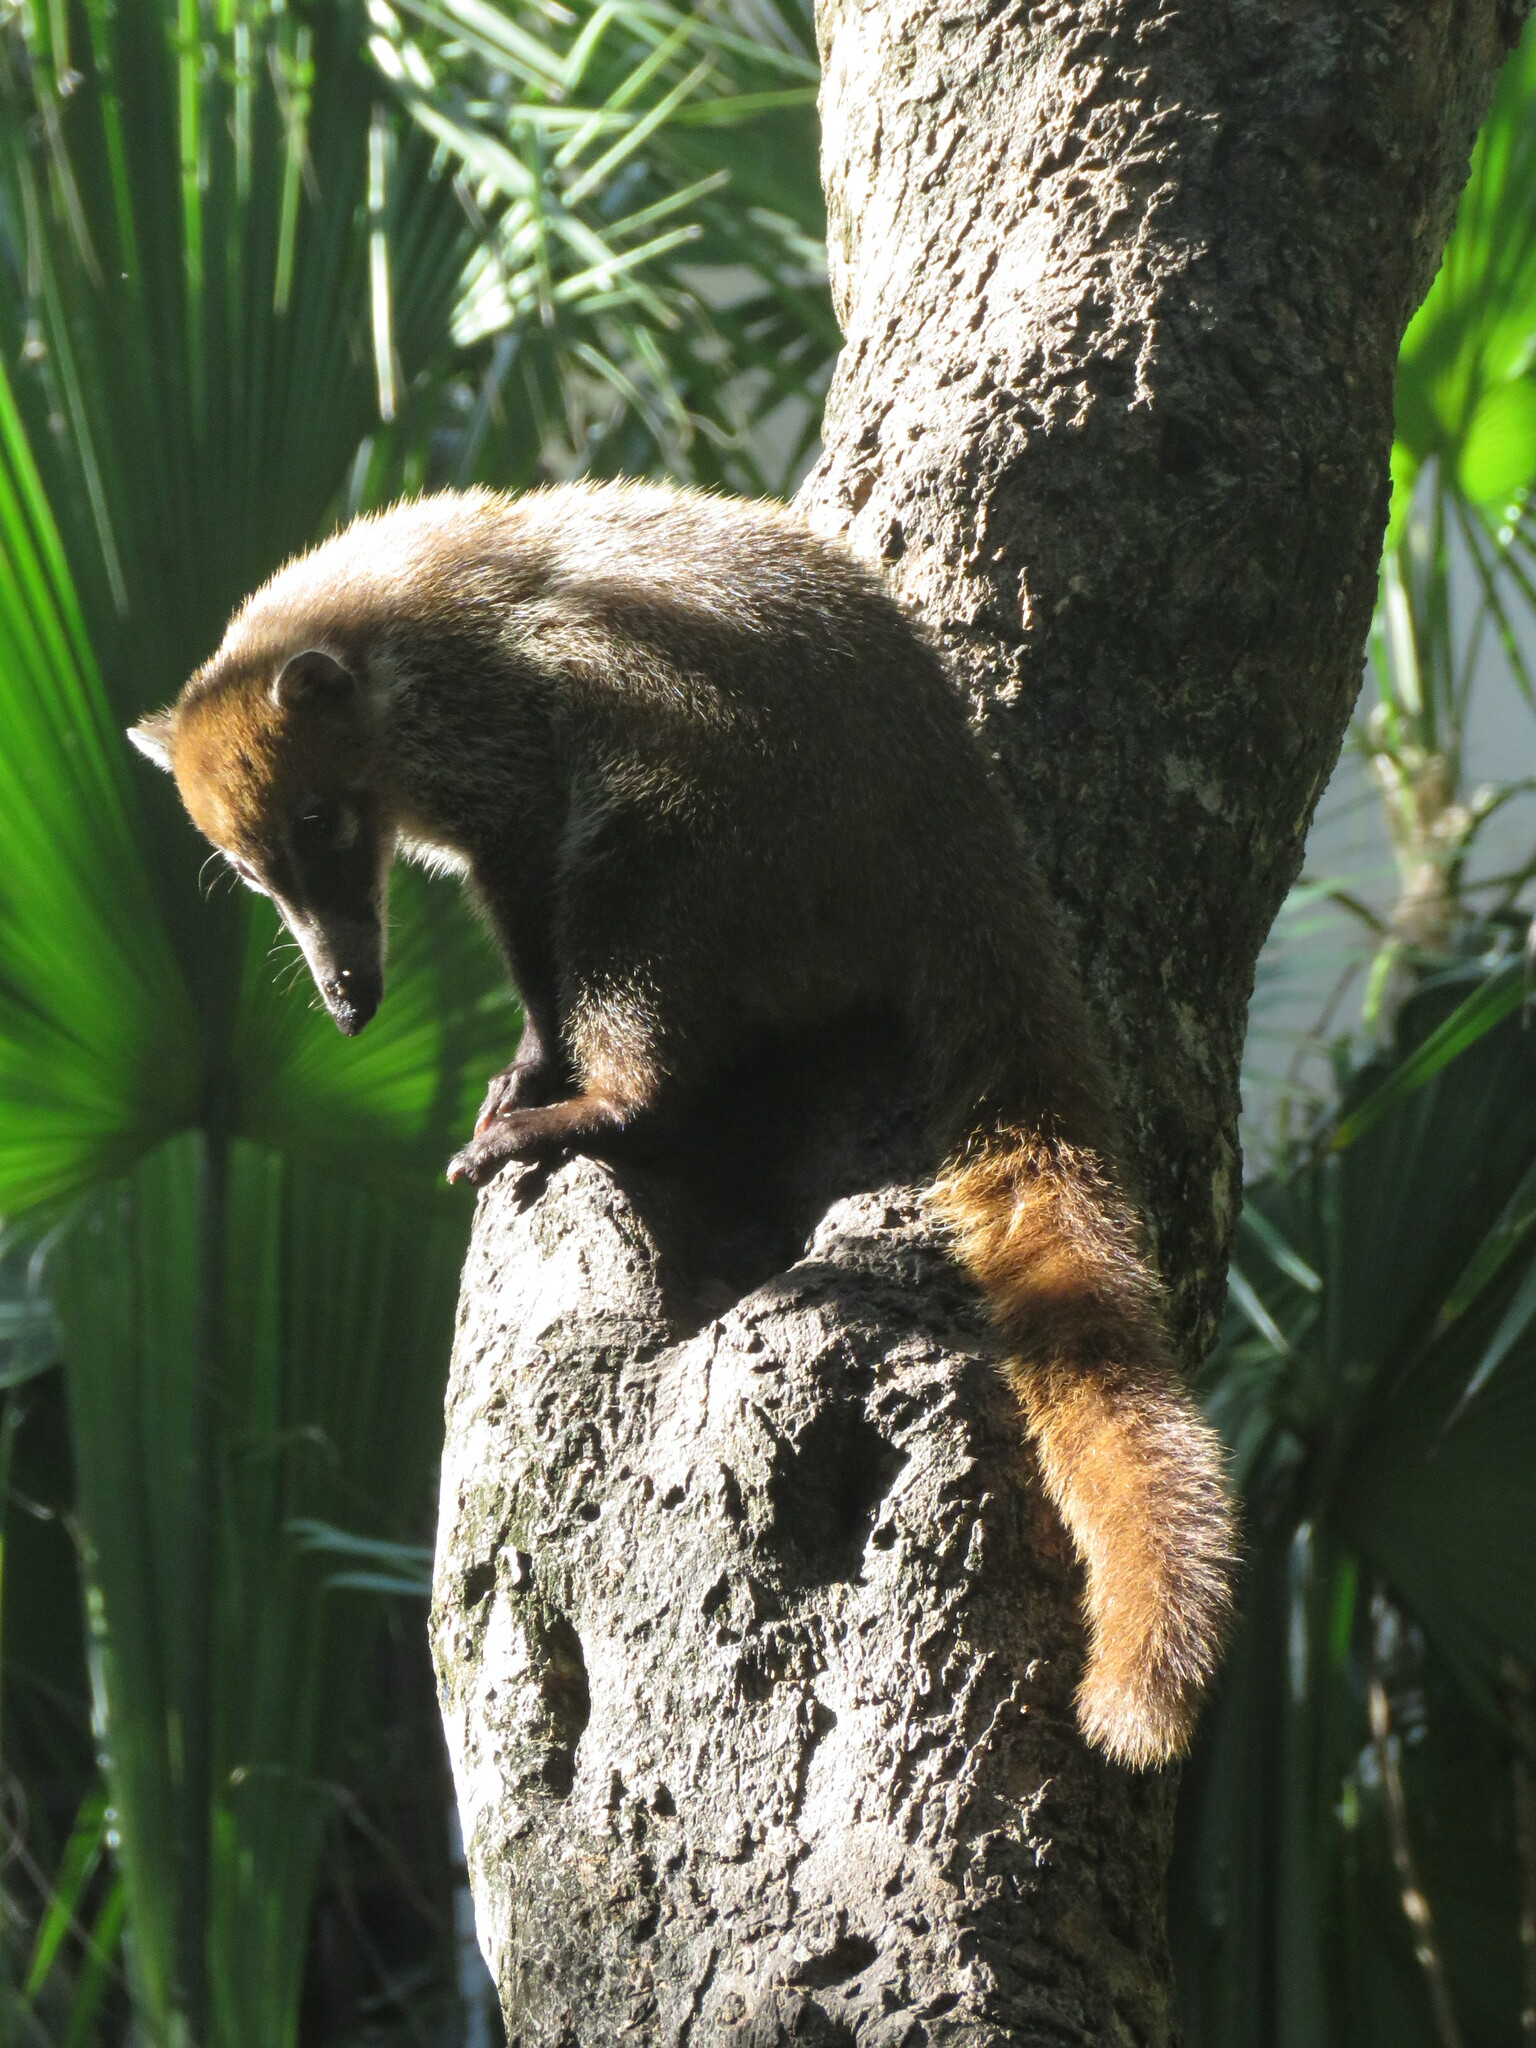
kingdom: Animalia
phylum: Chordata
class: Mammalia
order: Carnivora
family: Procyonidae
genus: Nasua
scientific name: Nasua narica
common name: White-nosed coati
